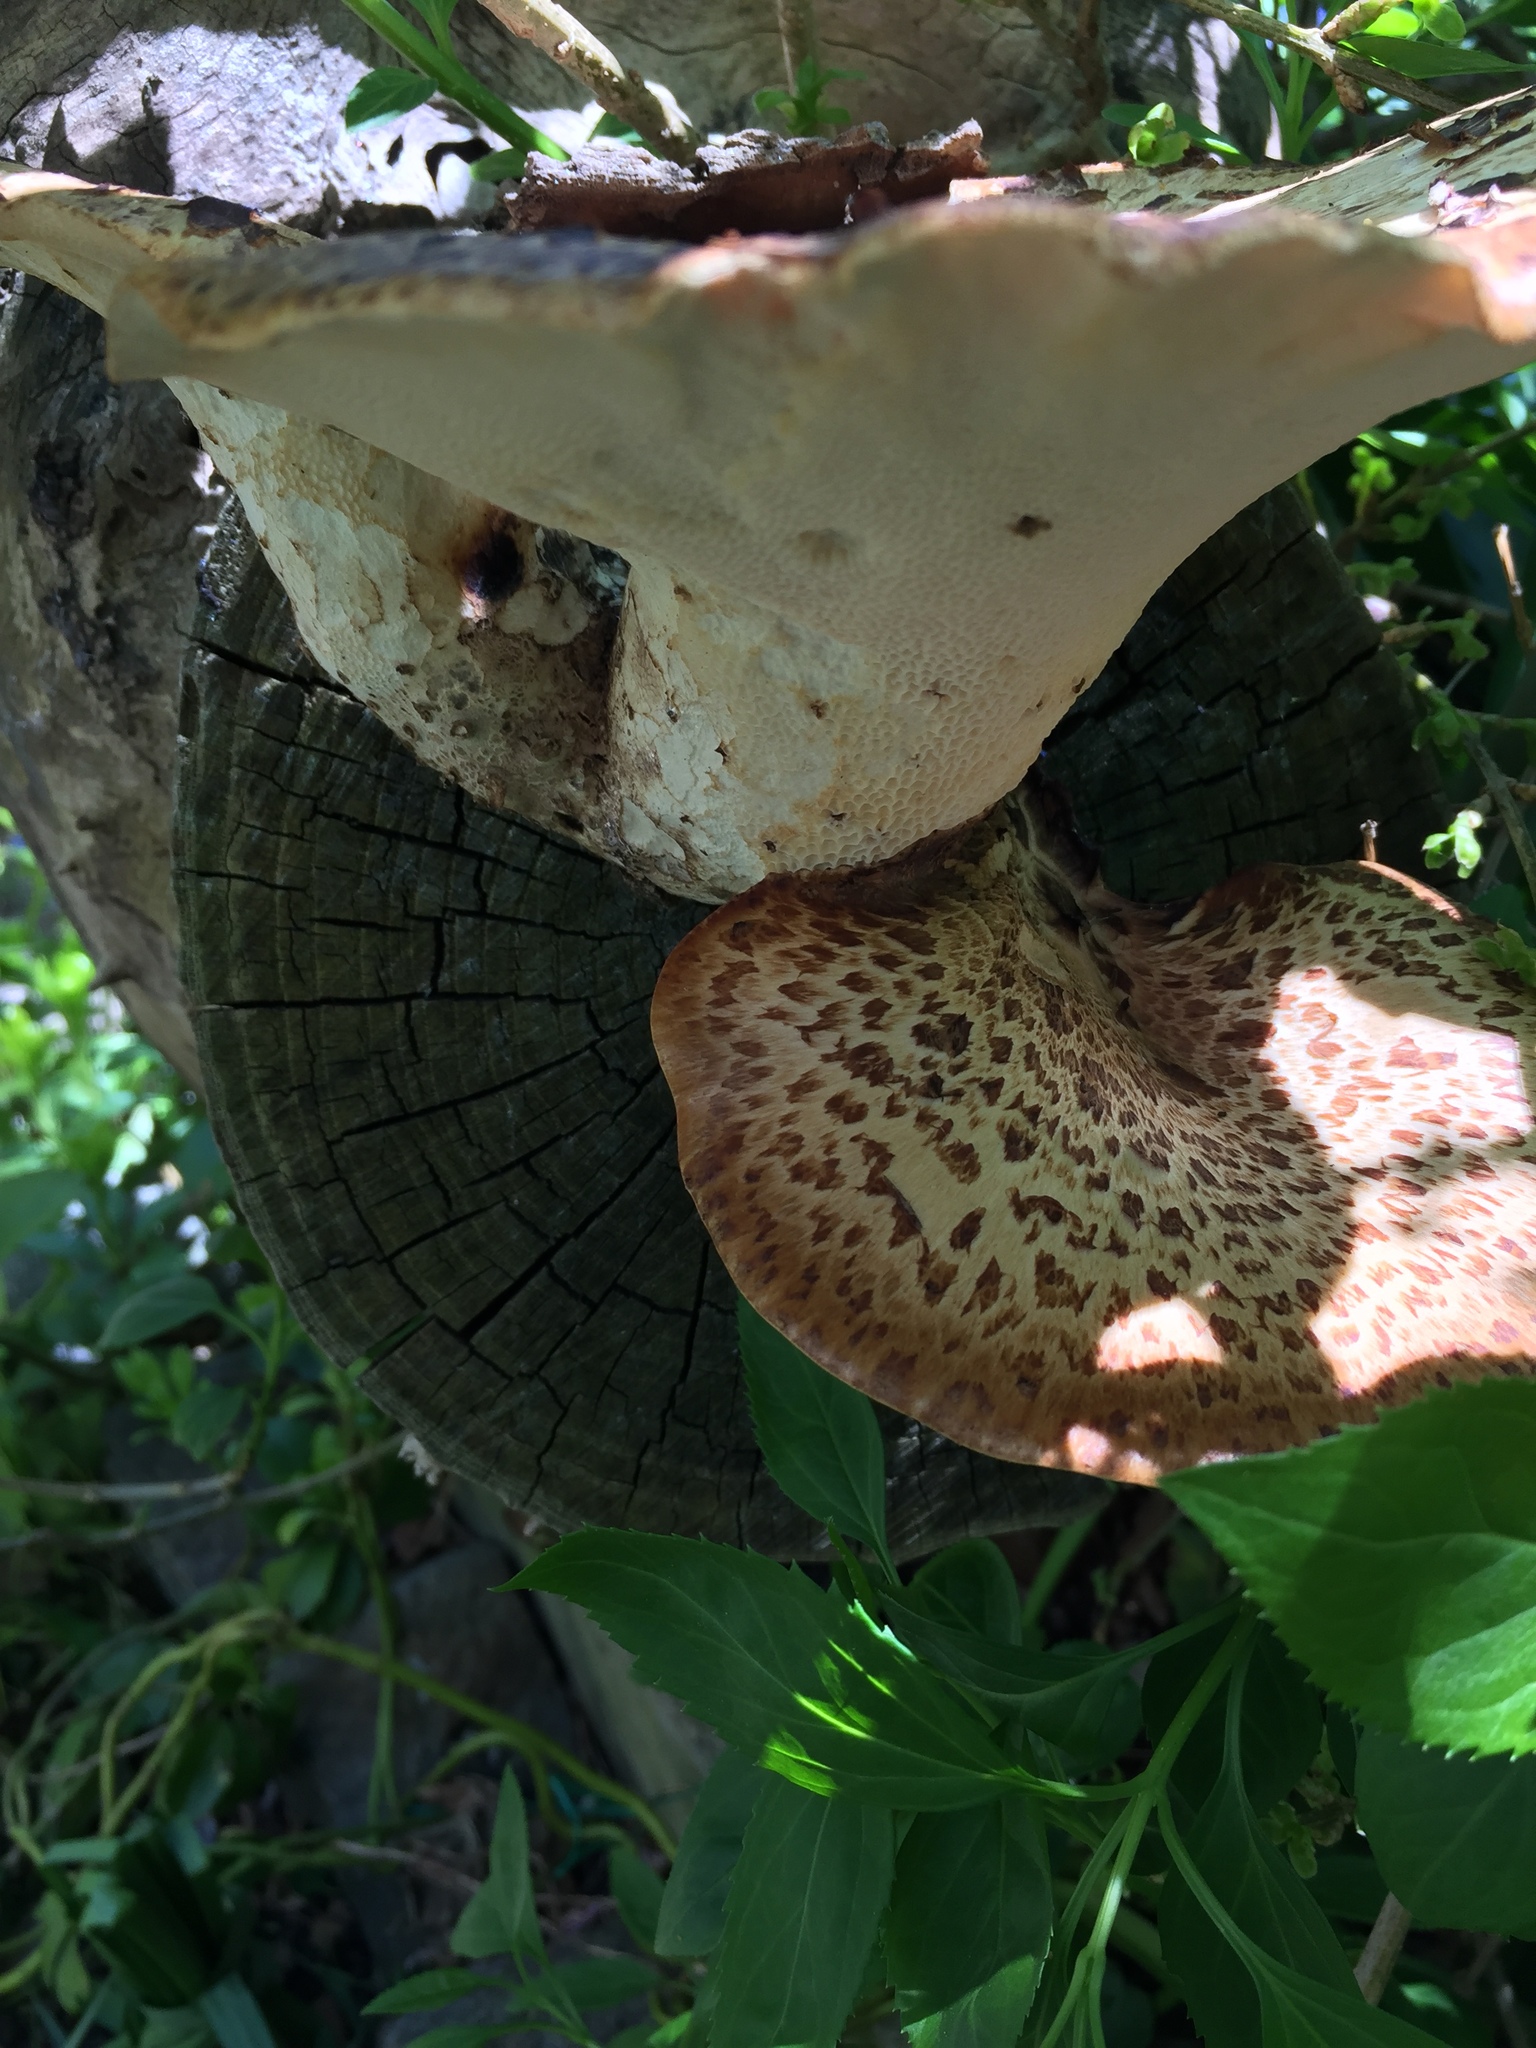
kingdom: Fungi
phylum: Basidiomycota
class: Agaricomycetes
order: Polyporales
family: Polyporaceae
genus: Cerioporus
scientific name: Cerioporus squamosus
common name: Dryad's saddle
